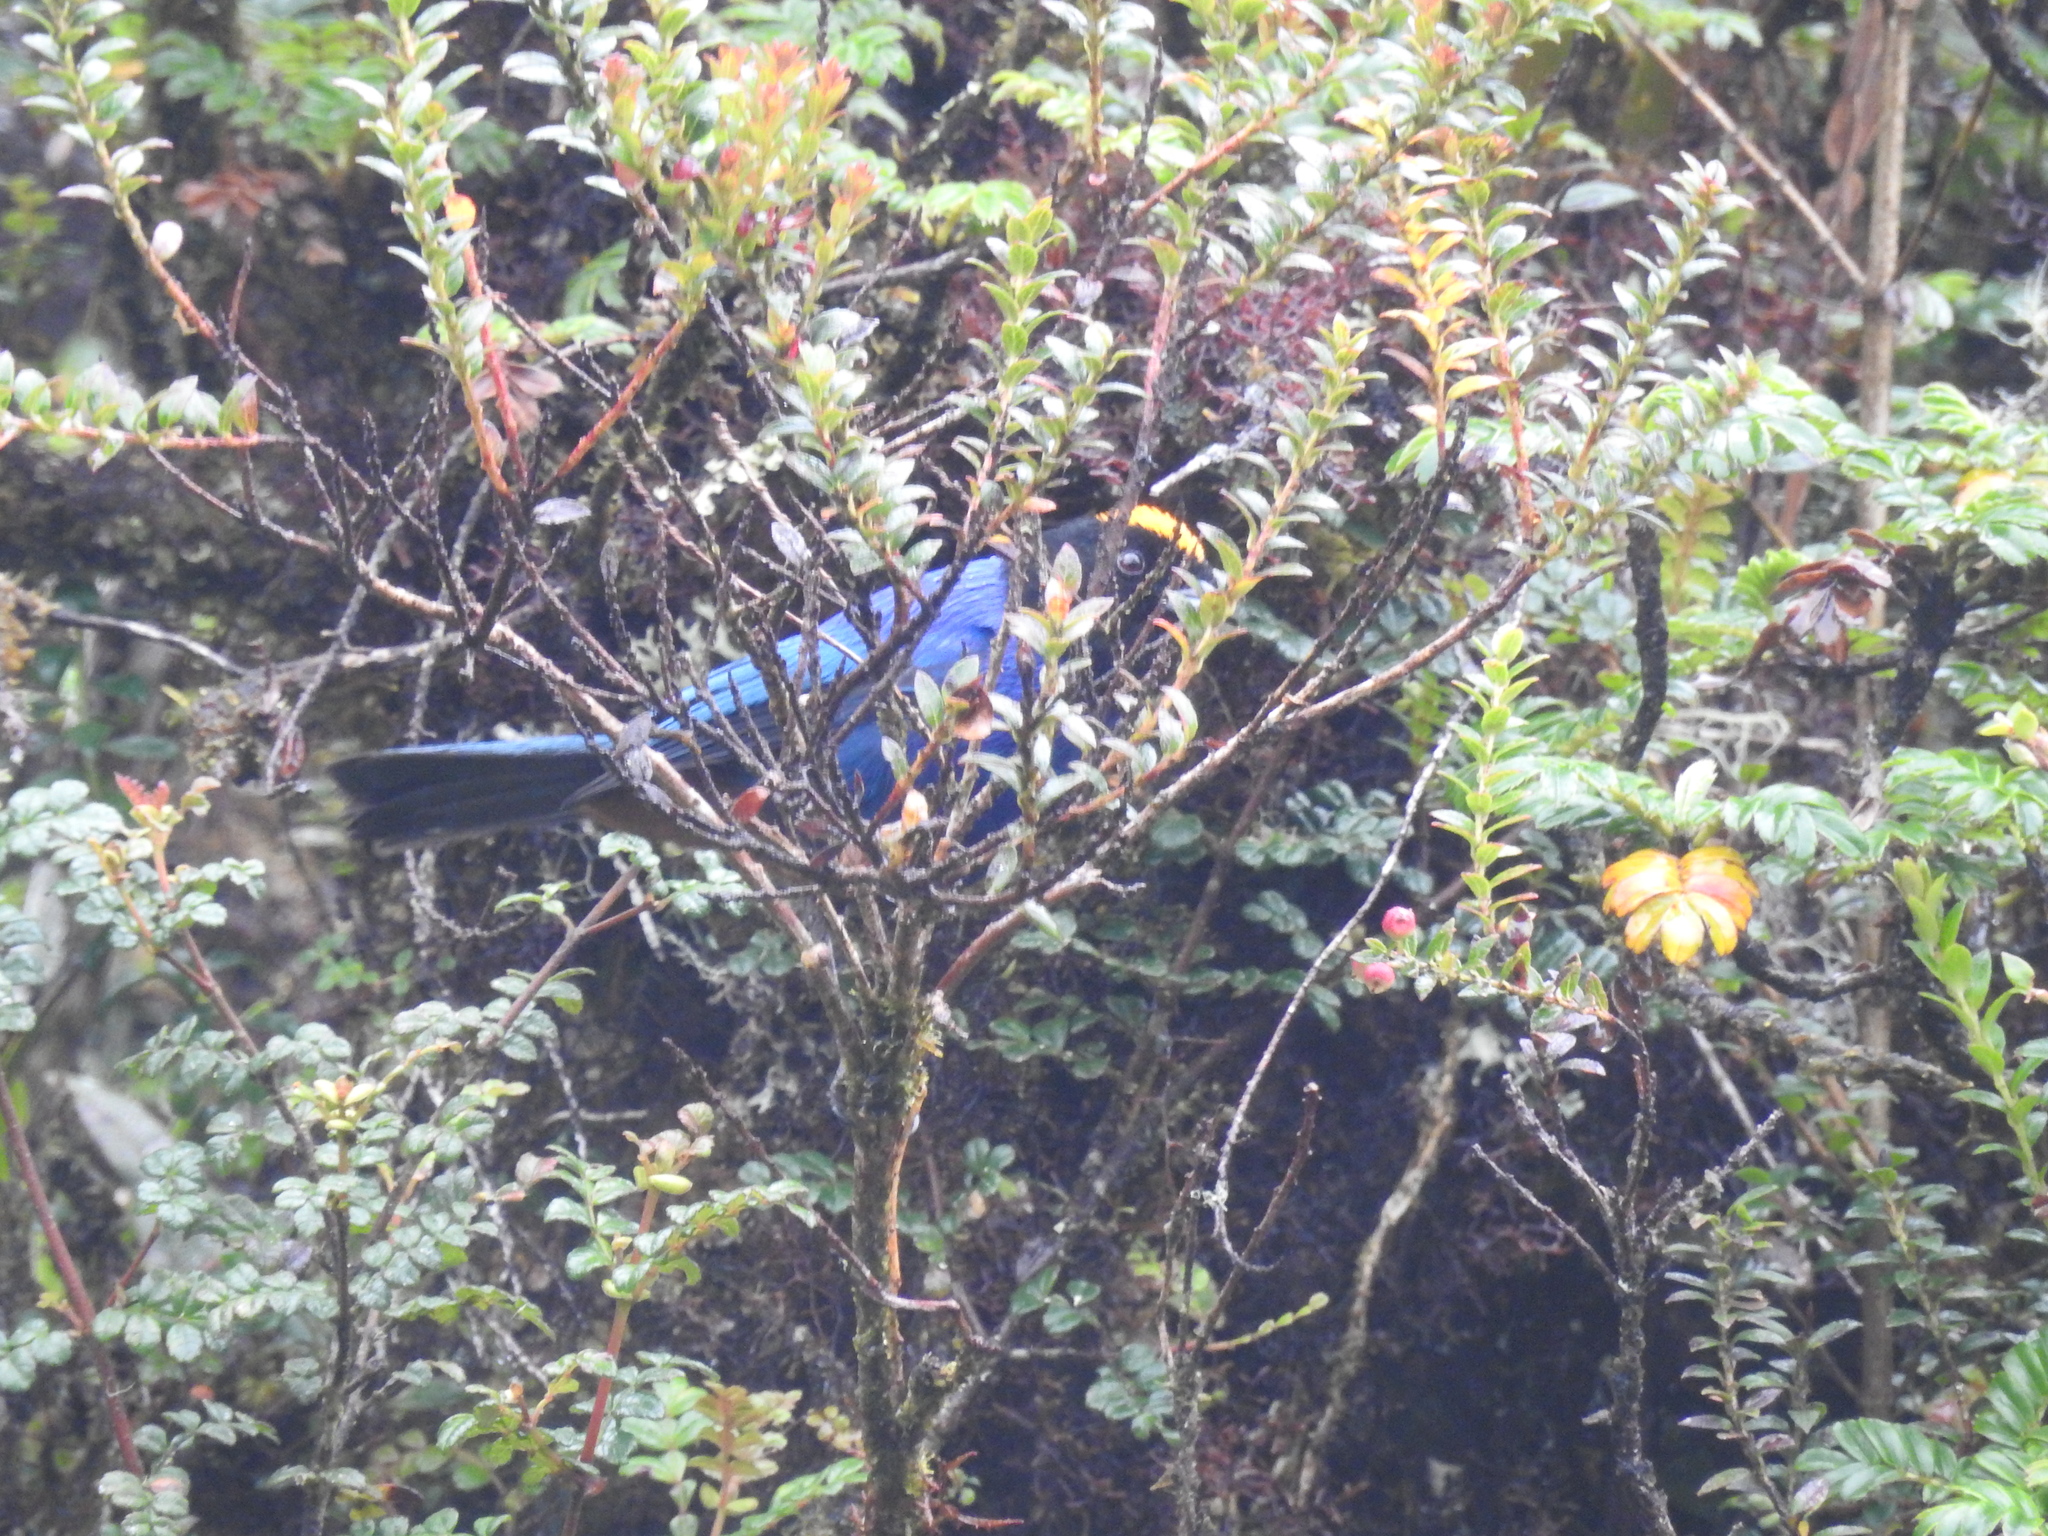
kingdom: Animalia
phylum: Chordata
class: Aves
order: Passeriformes
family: Thraupidae
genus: Iridosornis
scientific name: Iridosornis rufivertex
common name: Golden-crowned tanager
